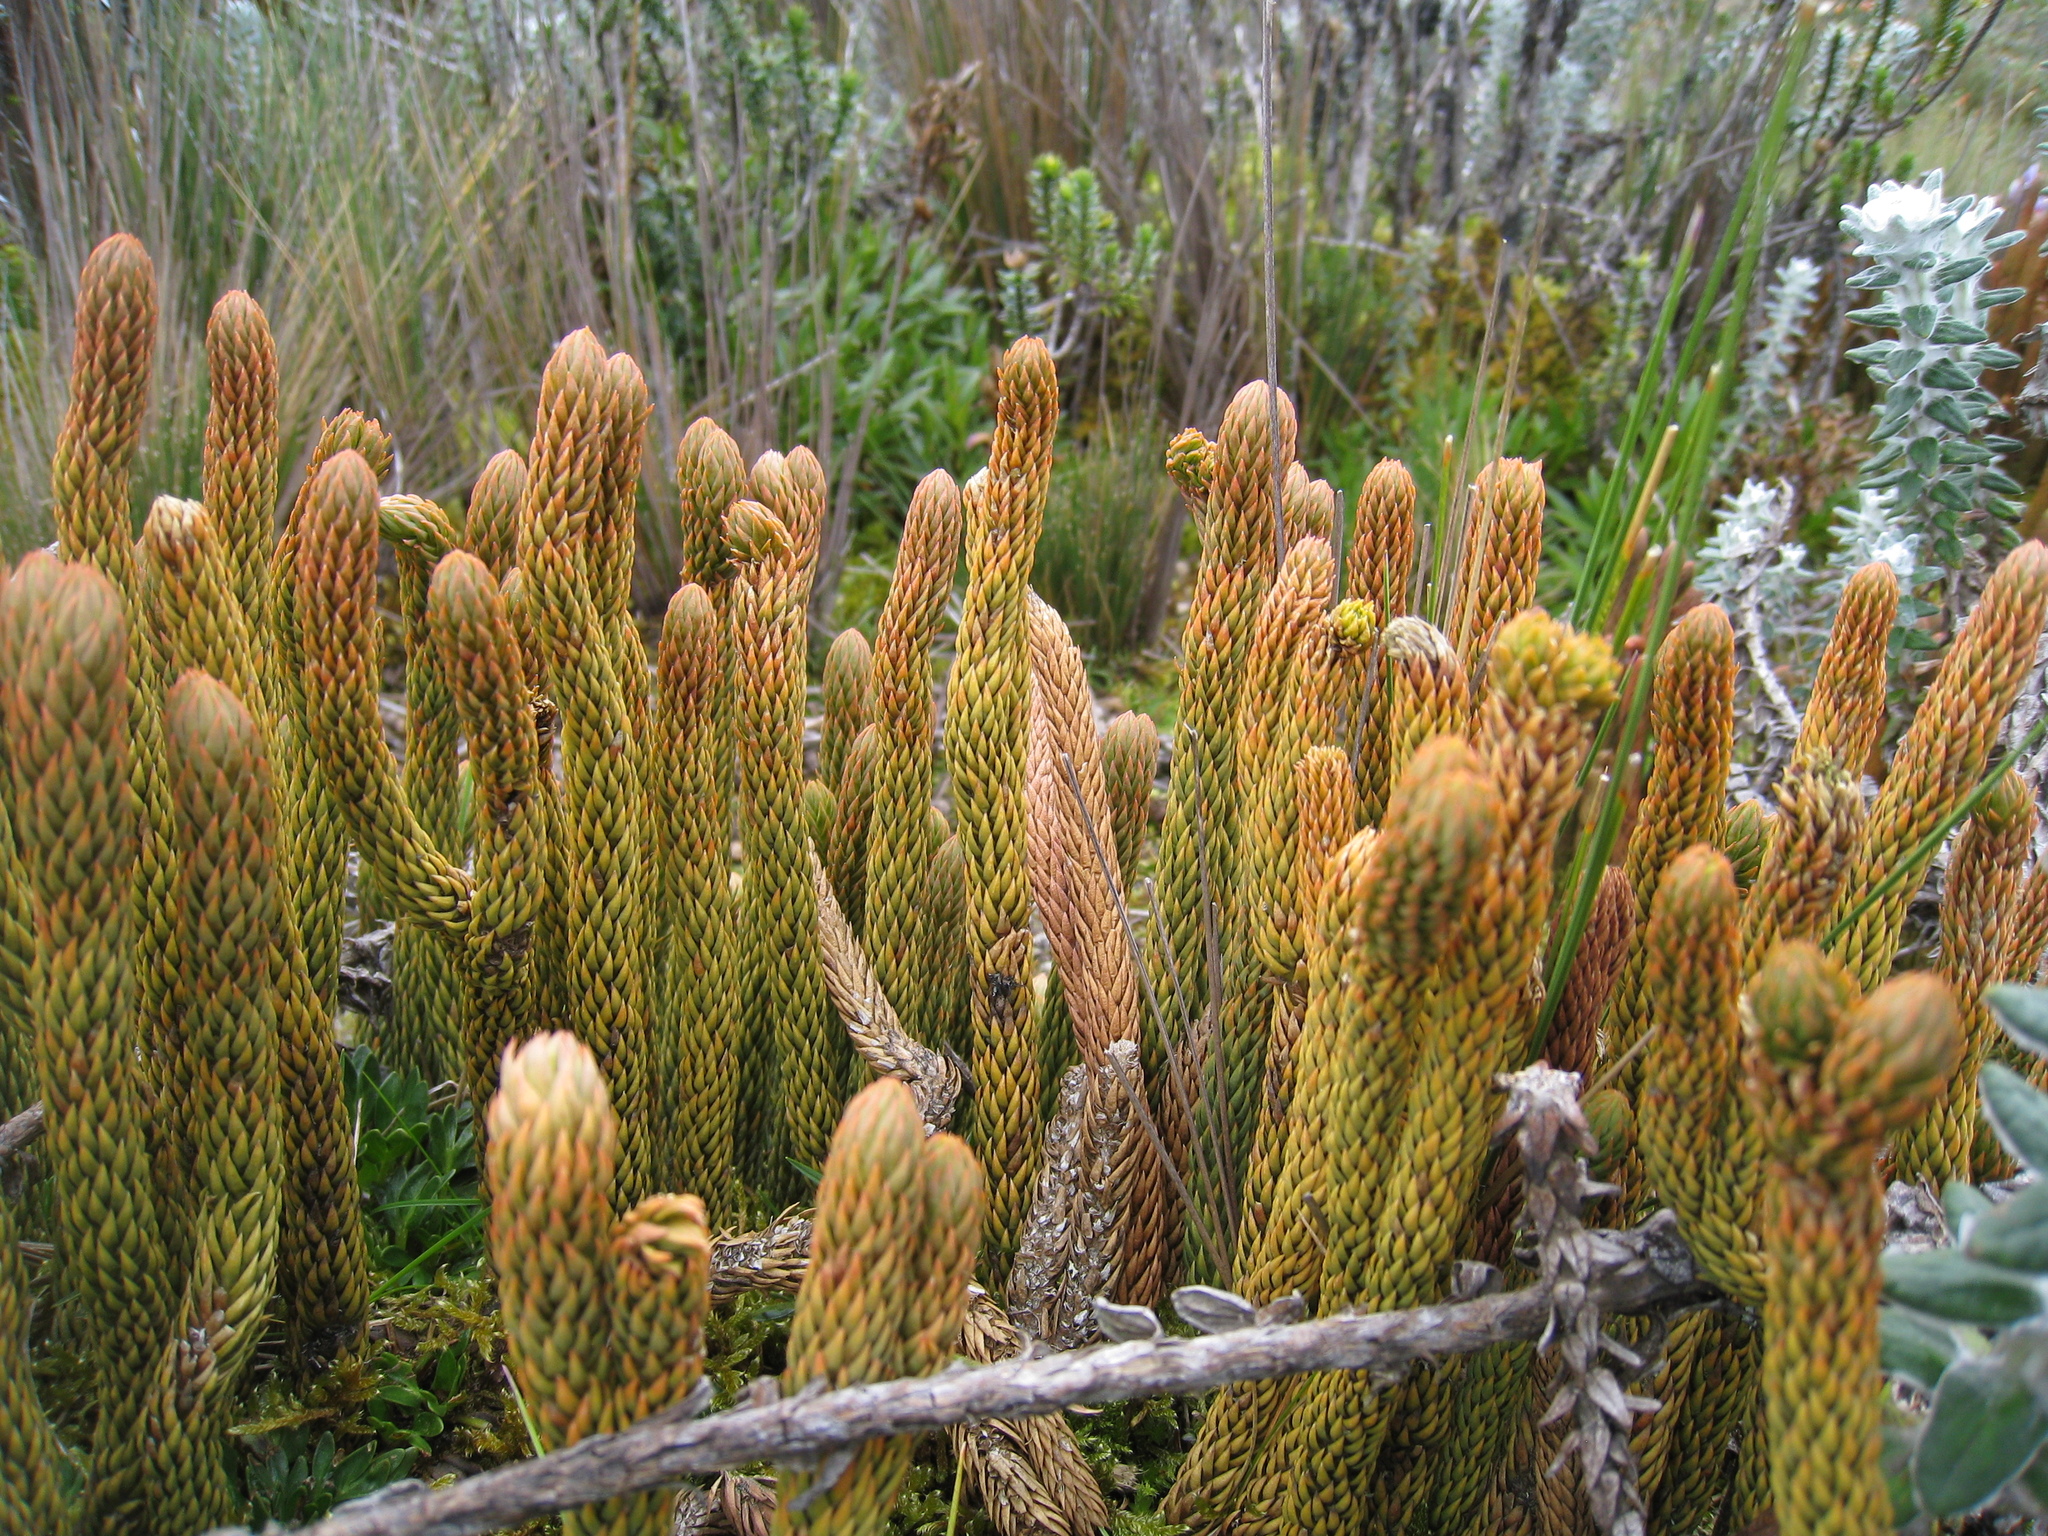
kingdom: Plantae
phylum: Tracheophyta
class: Lycopodiopsida
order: Lycopodiales
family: Lycopodiaceae
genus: Phlegmariurus
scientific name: Phlegmariurus crassus
